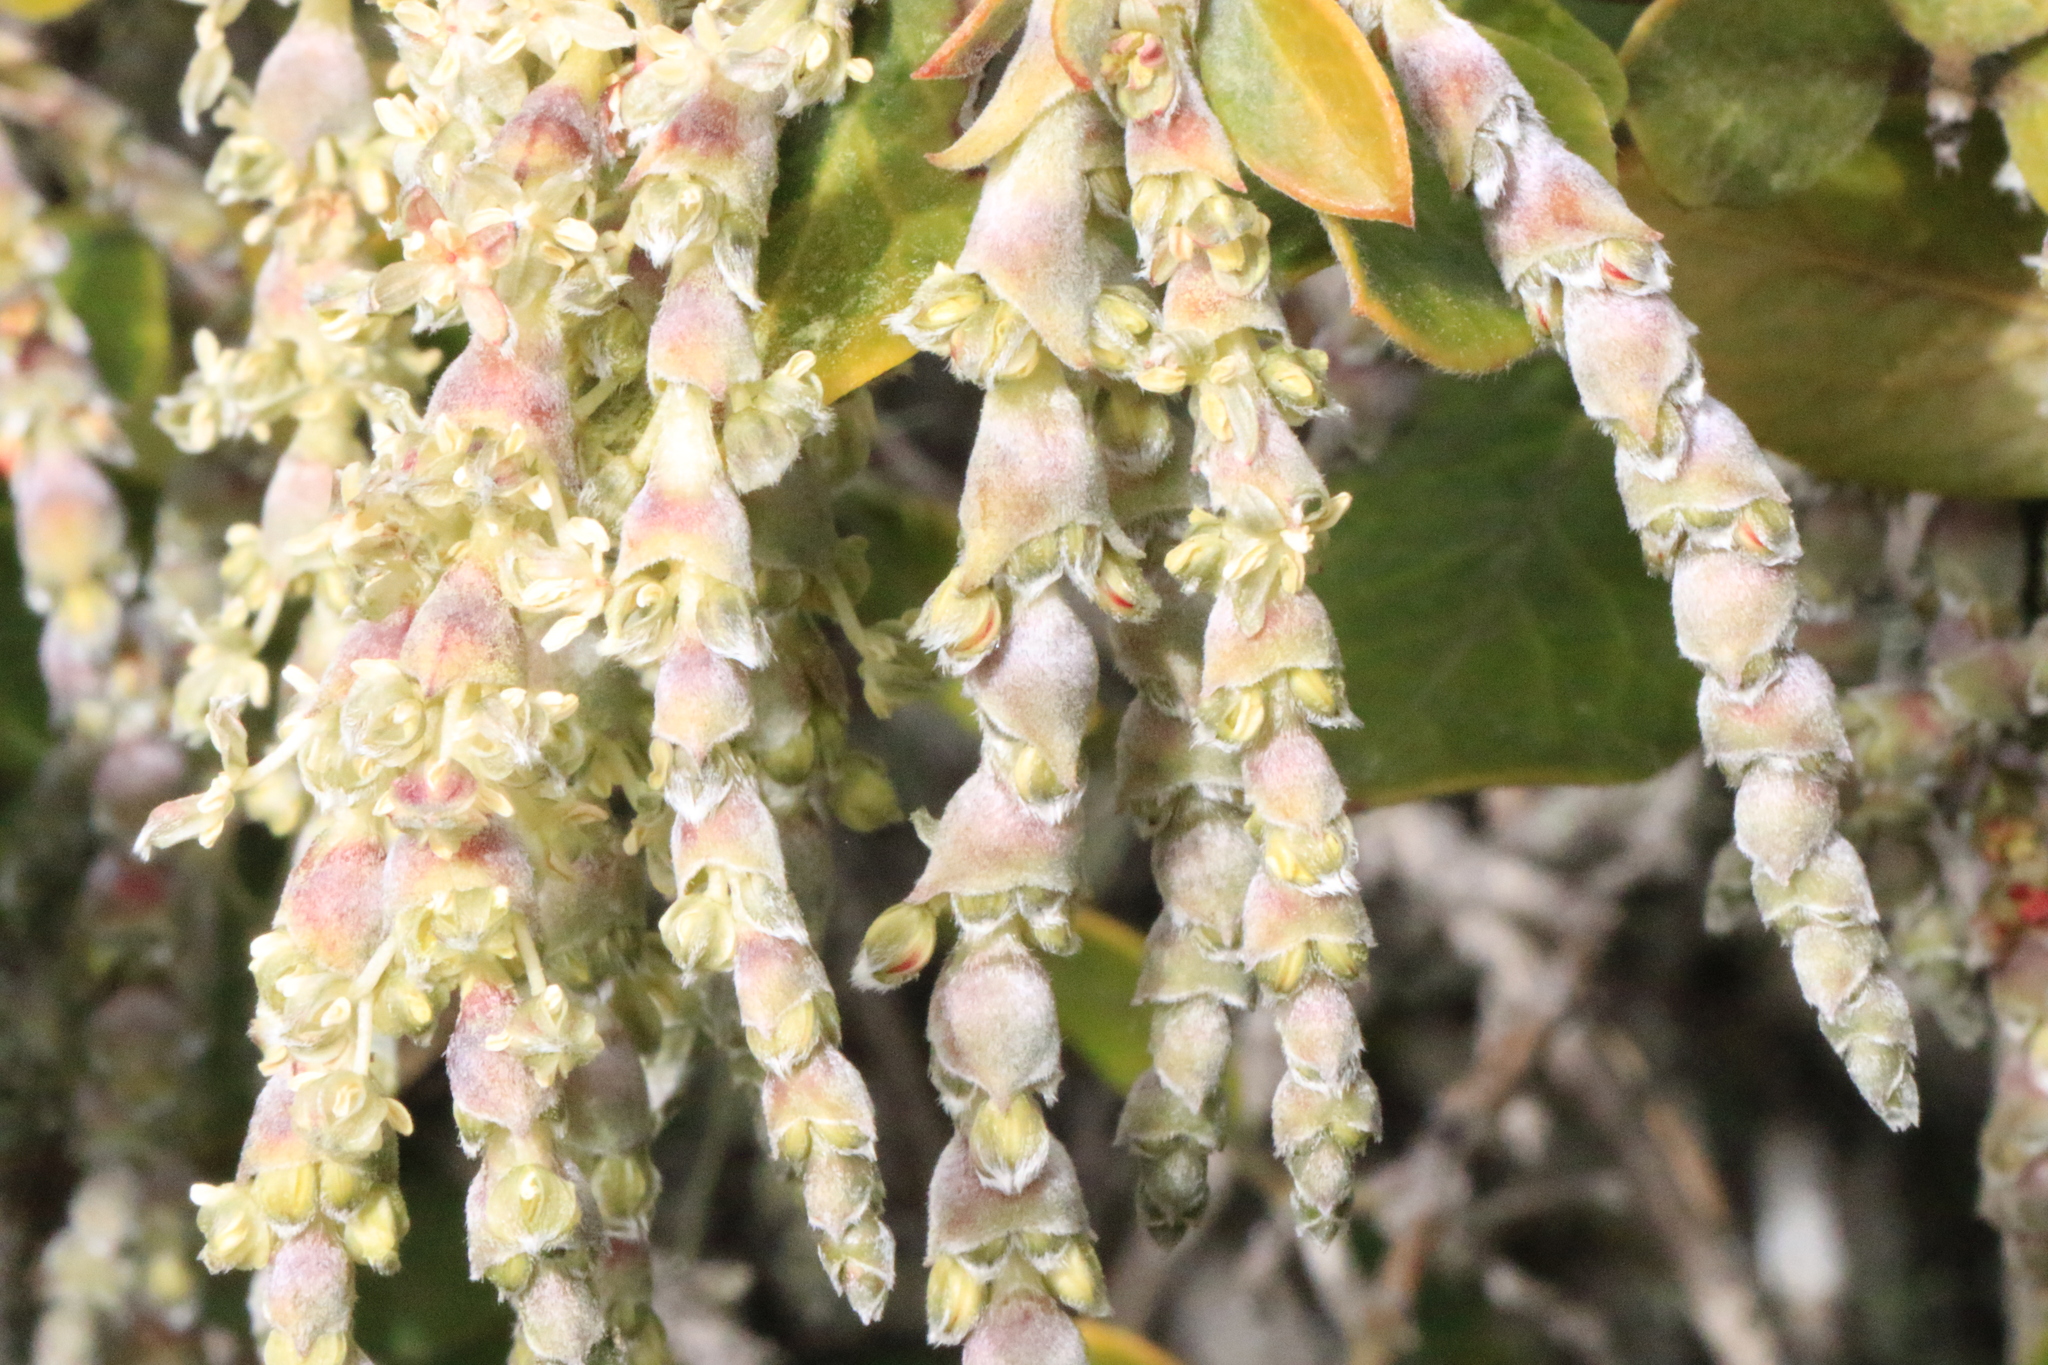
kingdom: Plantae
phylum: Tracheophyta
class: Magnoliopsida
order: Garryales
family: Garryaceae
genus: Garrya
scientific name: Garrya buxifolia
